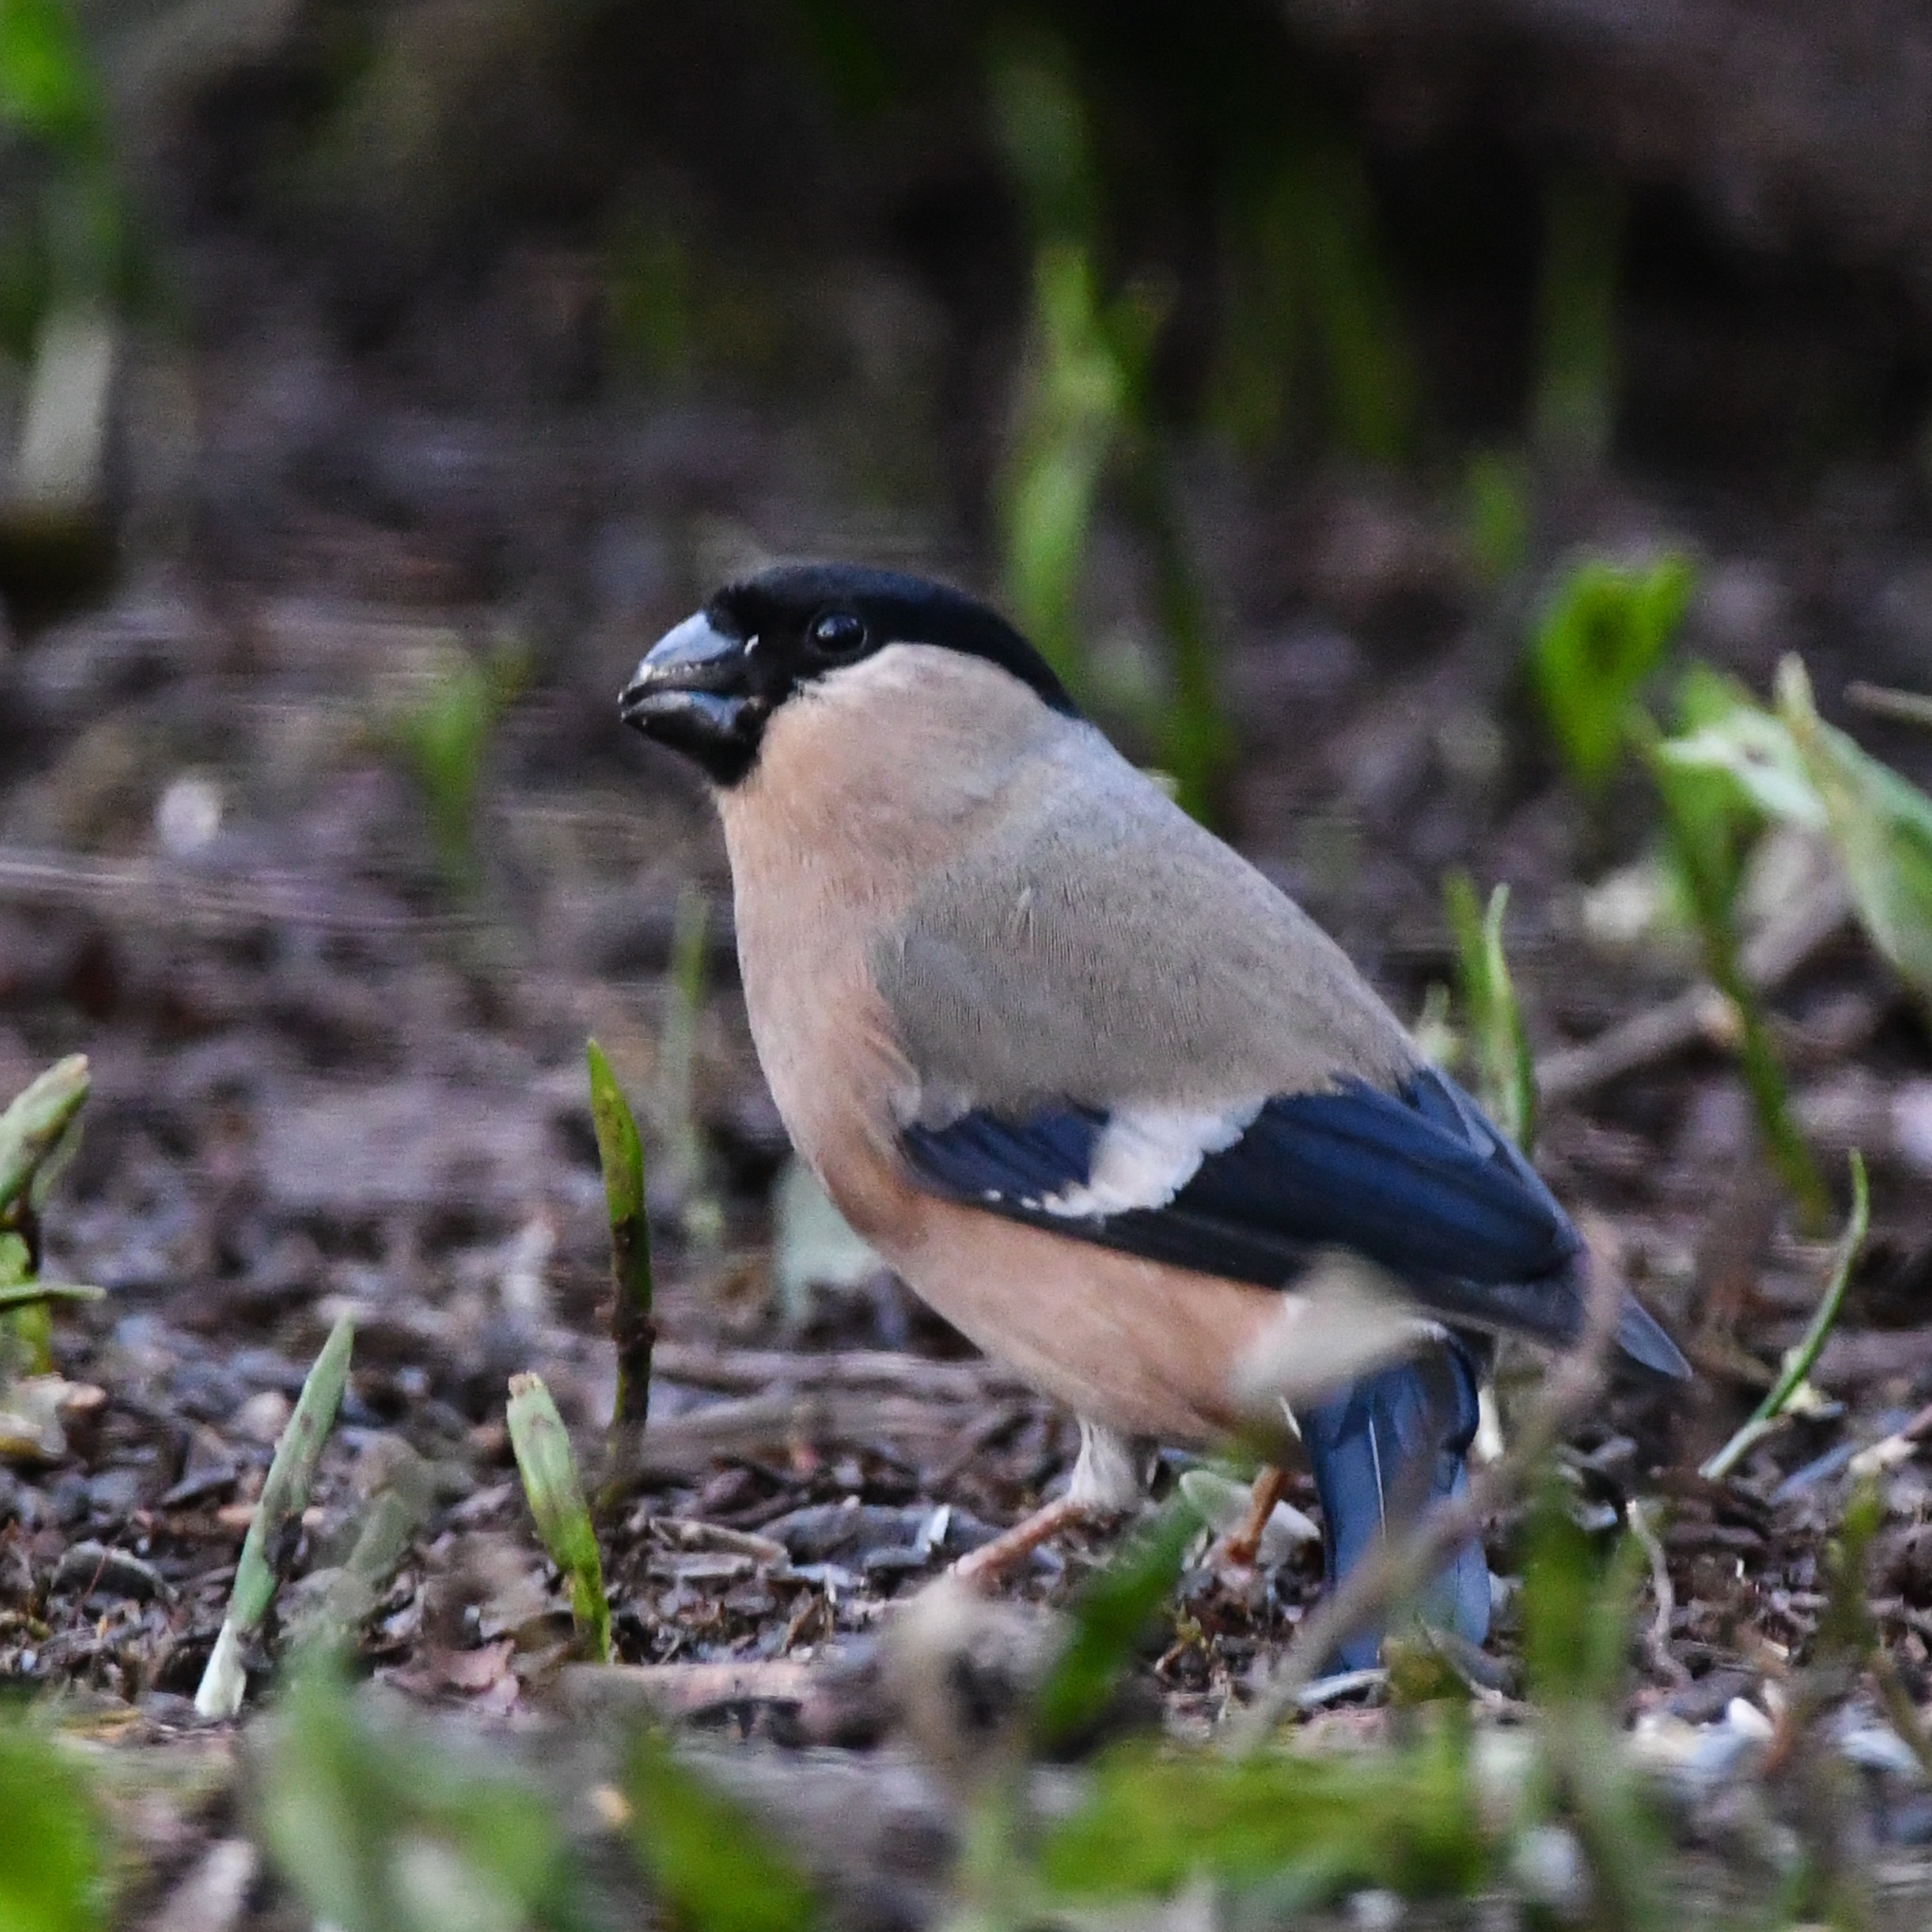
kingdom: Animalia
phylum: Chordata
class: Aves
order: Passeriformes
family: Fringillidae
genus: Pyrrhula
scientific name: Pyrrhula pyrrhula
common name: Eurasian bullfinch
